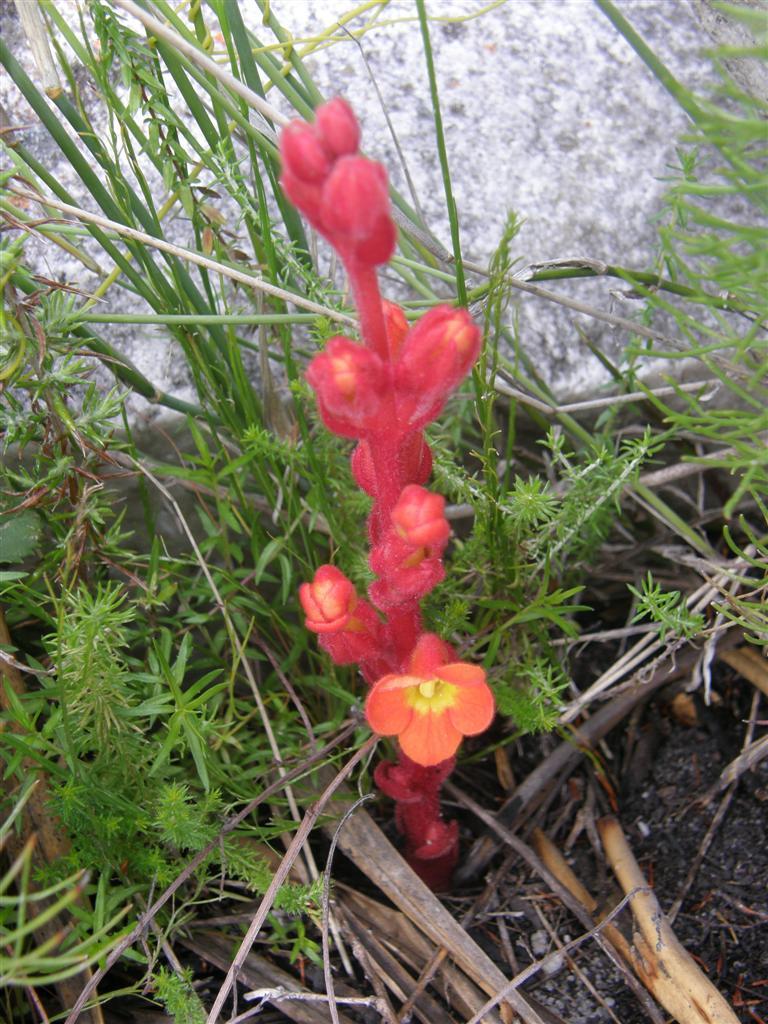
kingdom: Plantae
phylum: Tracheophyta
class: Magnoliopsida
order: Lamiales
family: Orobanchaceae
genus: Harveya
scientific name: Harveya bolusii
